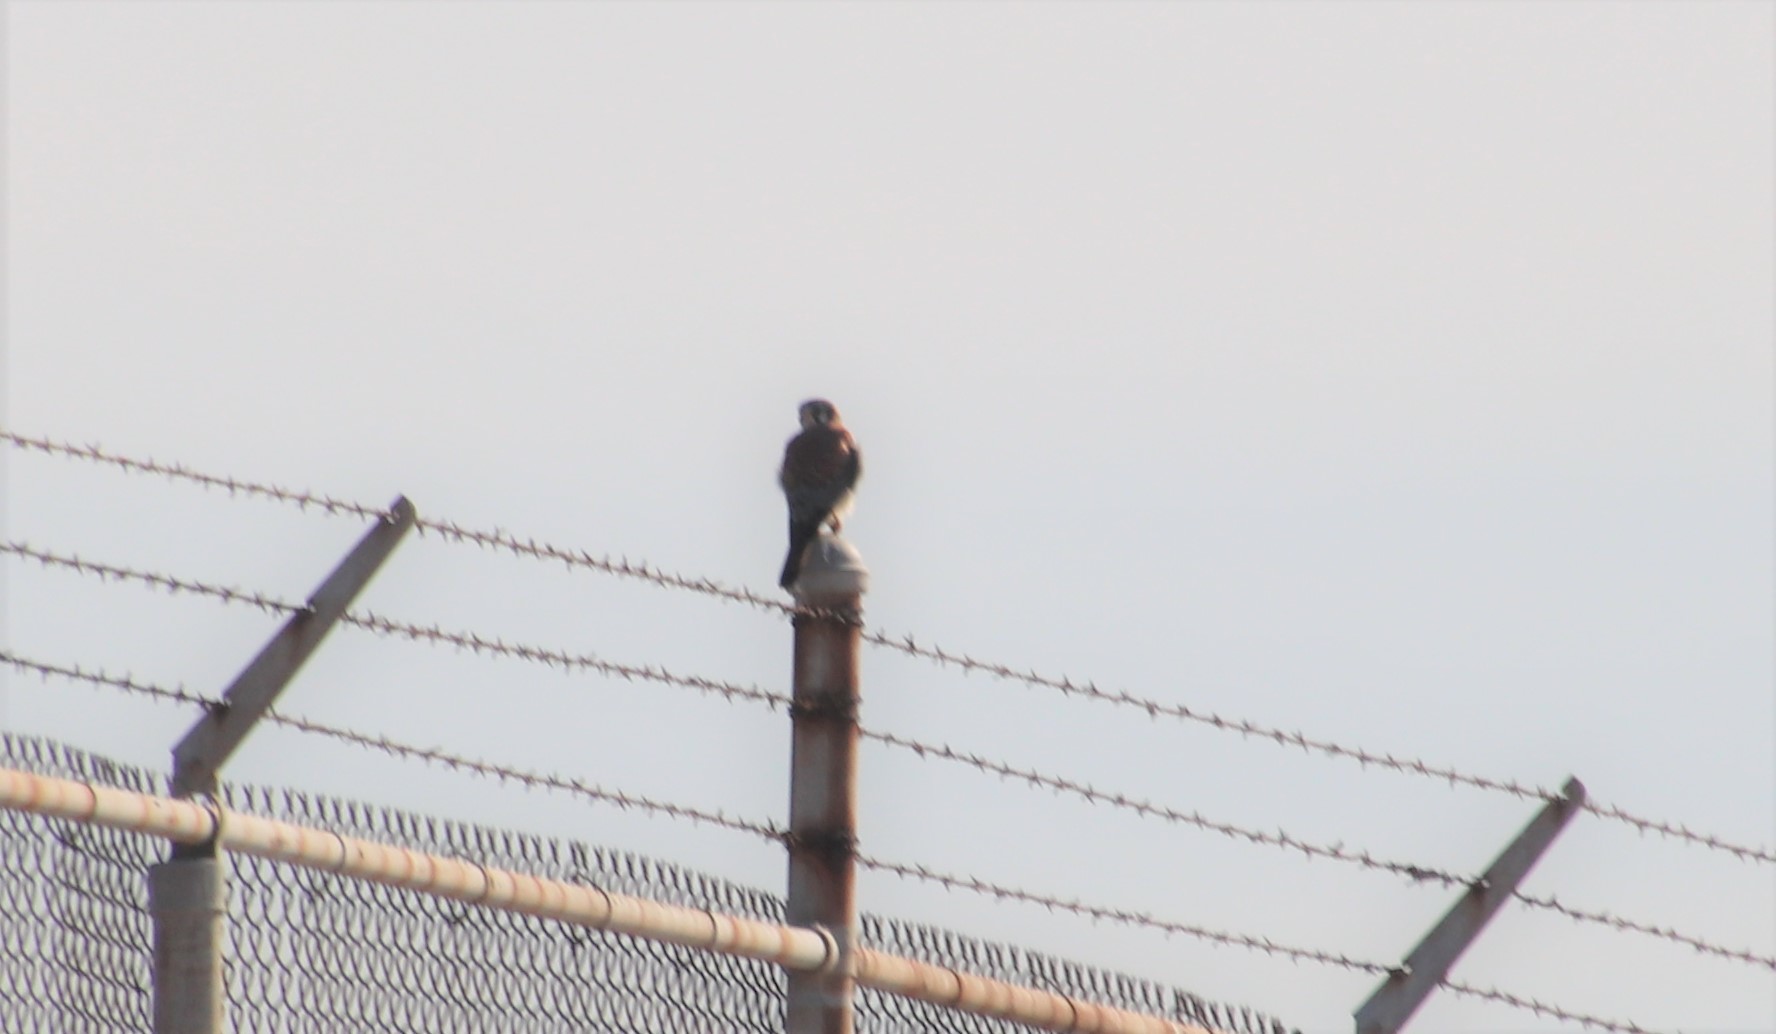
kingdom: Animalia
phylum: Chordata
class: Aves
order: Falconiformes
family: Falconidae
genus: Falco
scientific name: Falco sparverius
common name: American kestrel
